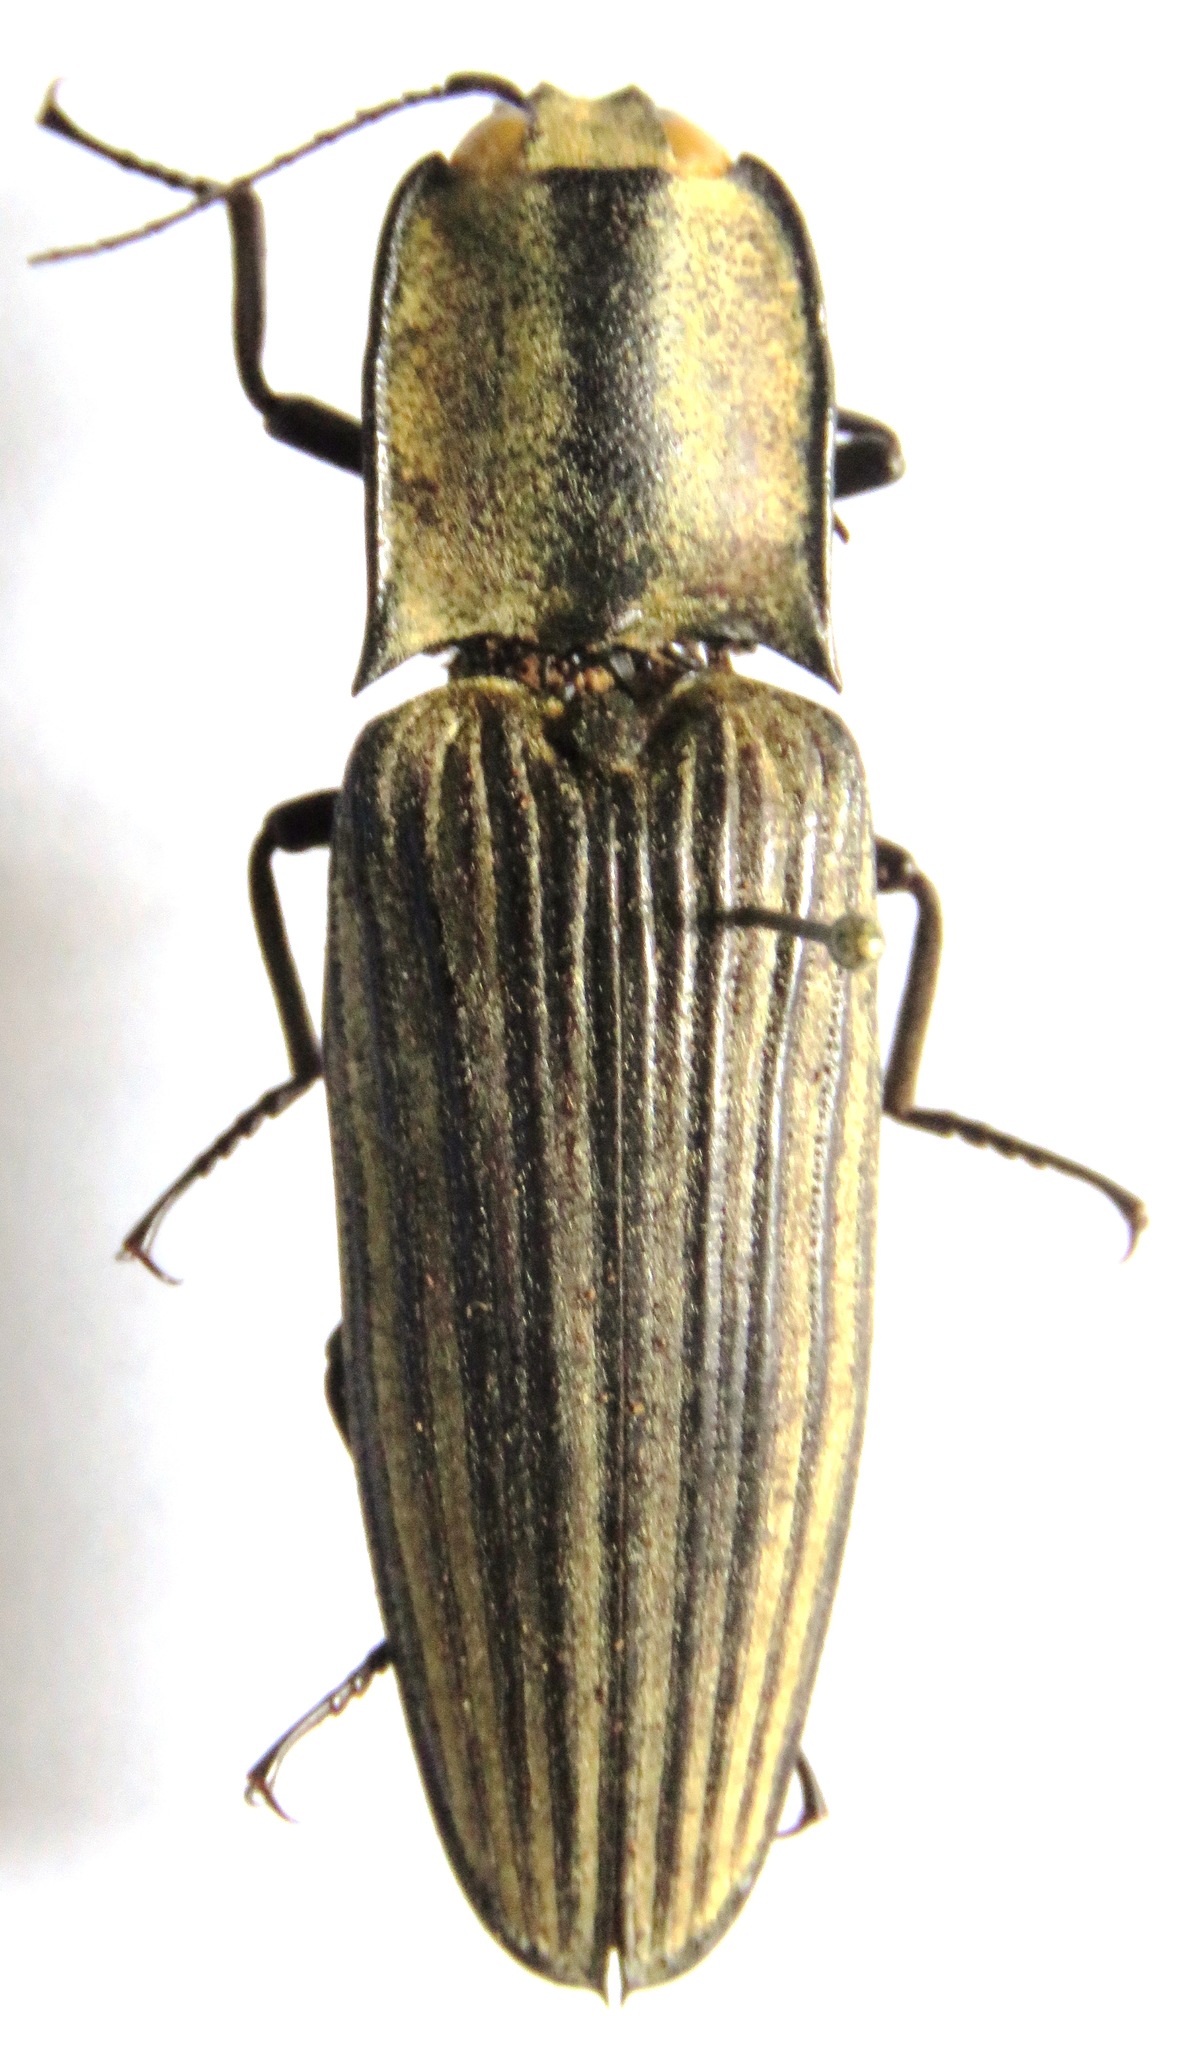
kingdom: Animalia
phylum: Arthropoda
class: Insecta
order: Coleoptera
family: Elateridae
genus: Alaus
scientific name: Alaus
